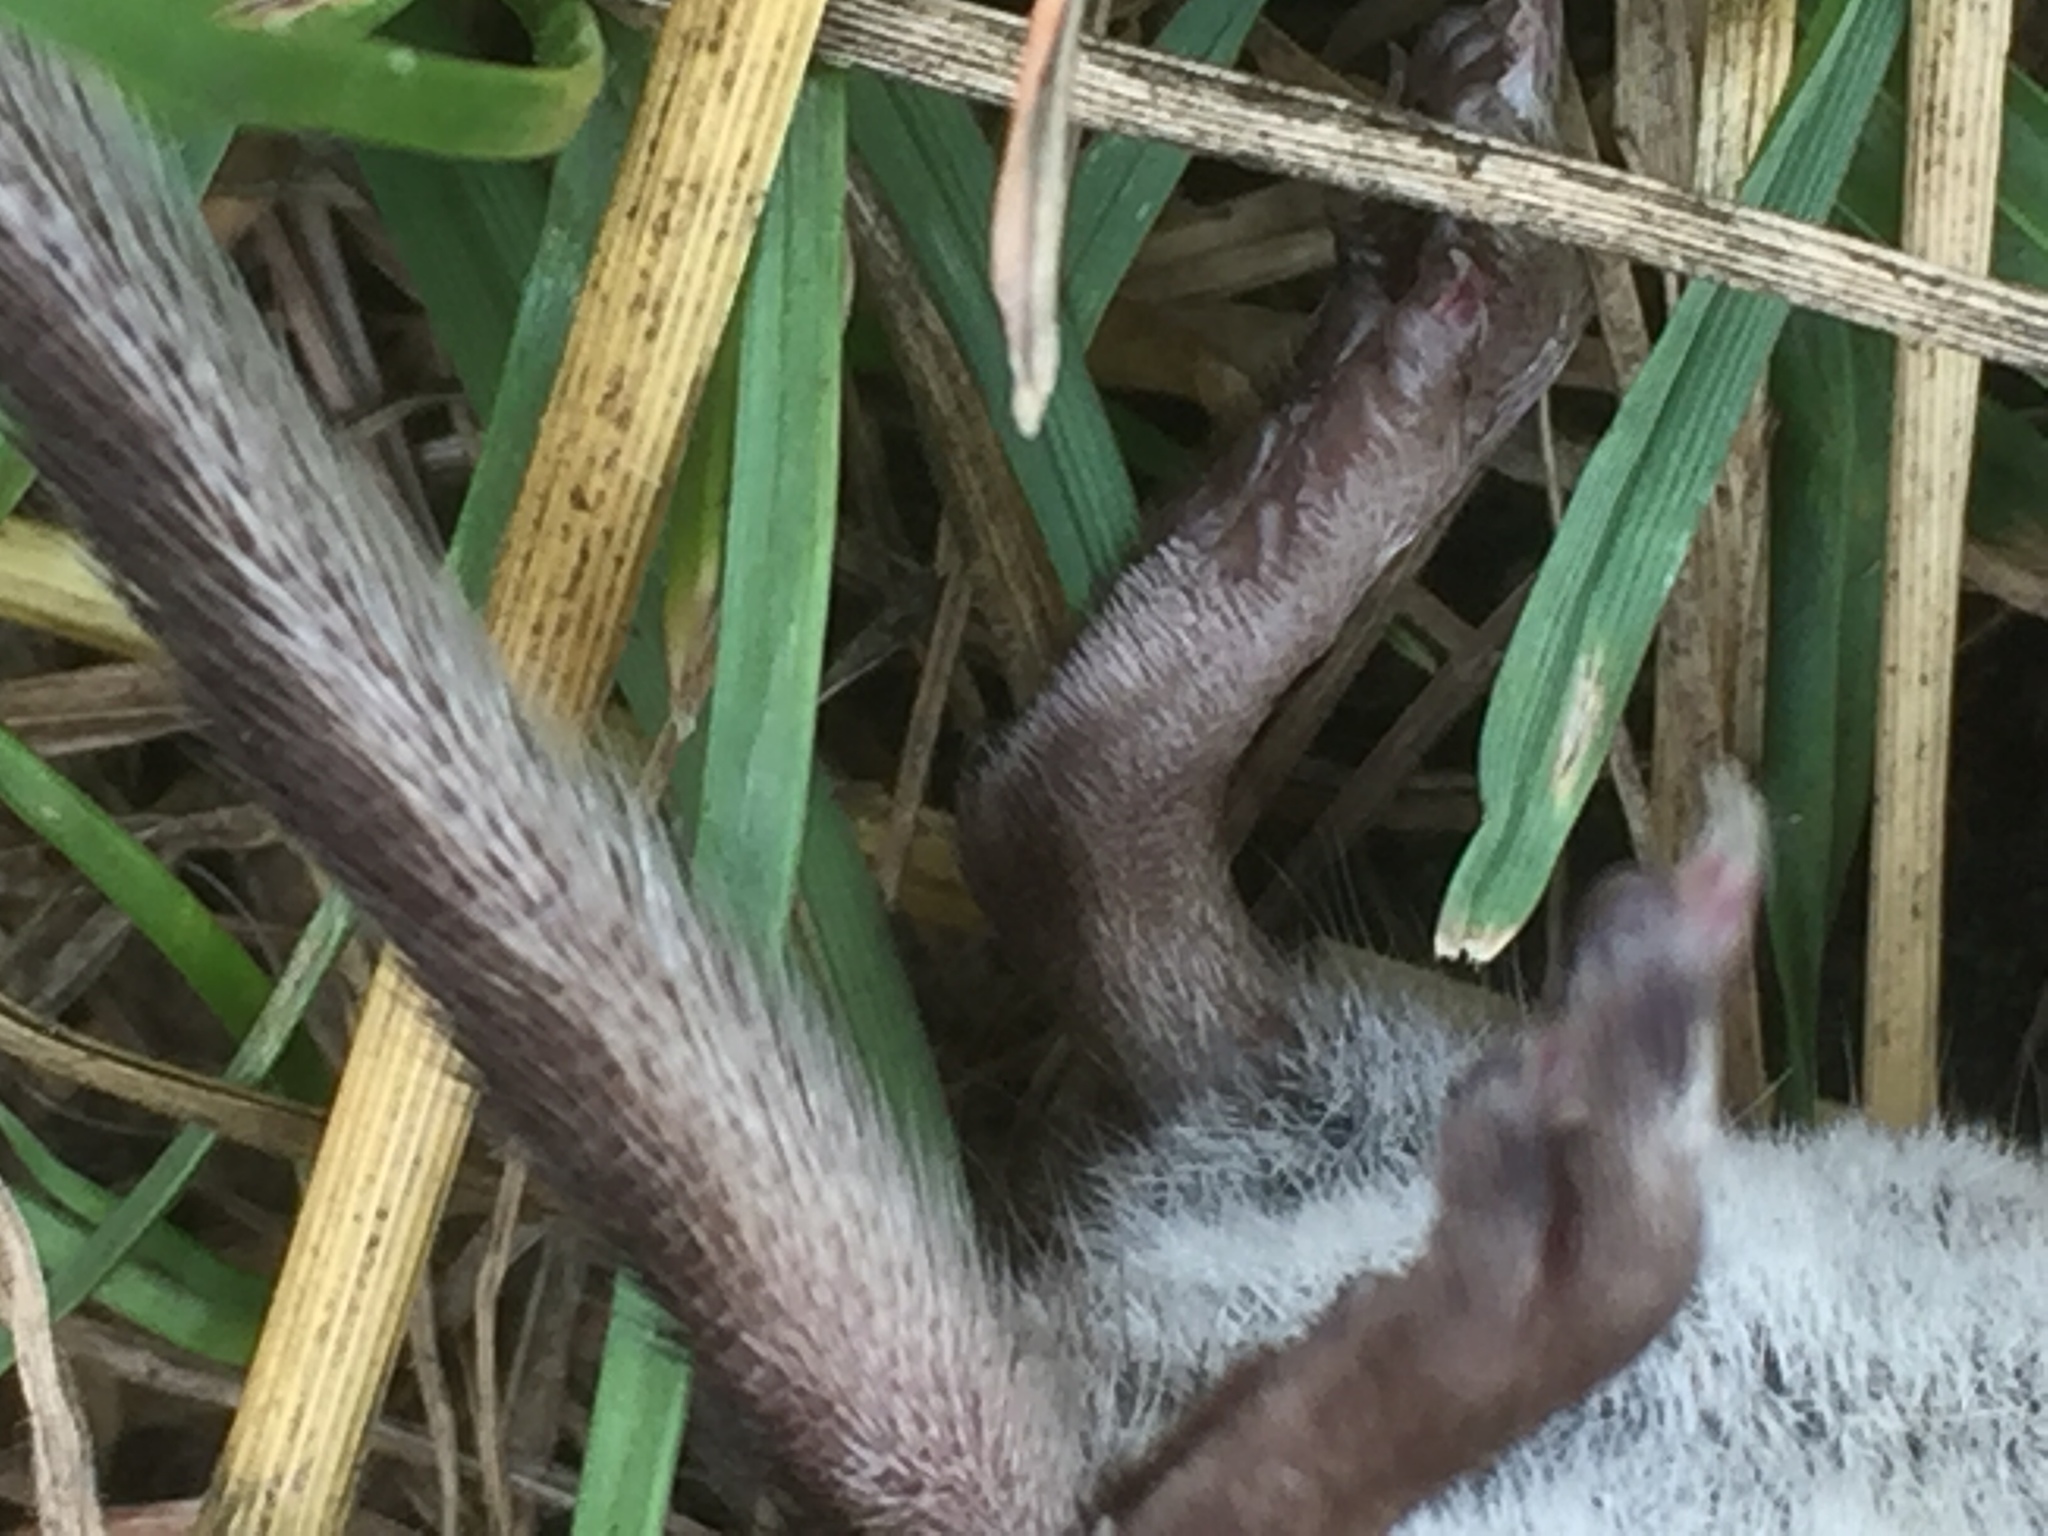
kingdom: Animalia
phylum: Chordata
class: Mammalia
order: Soricomorpha
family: Soricidae
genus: Sorex
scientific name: Sorex araneus
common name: Common shrew
